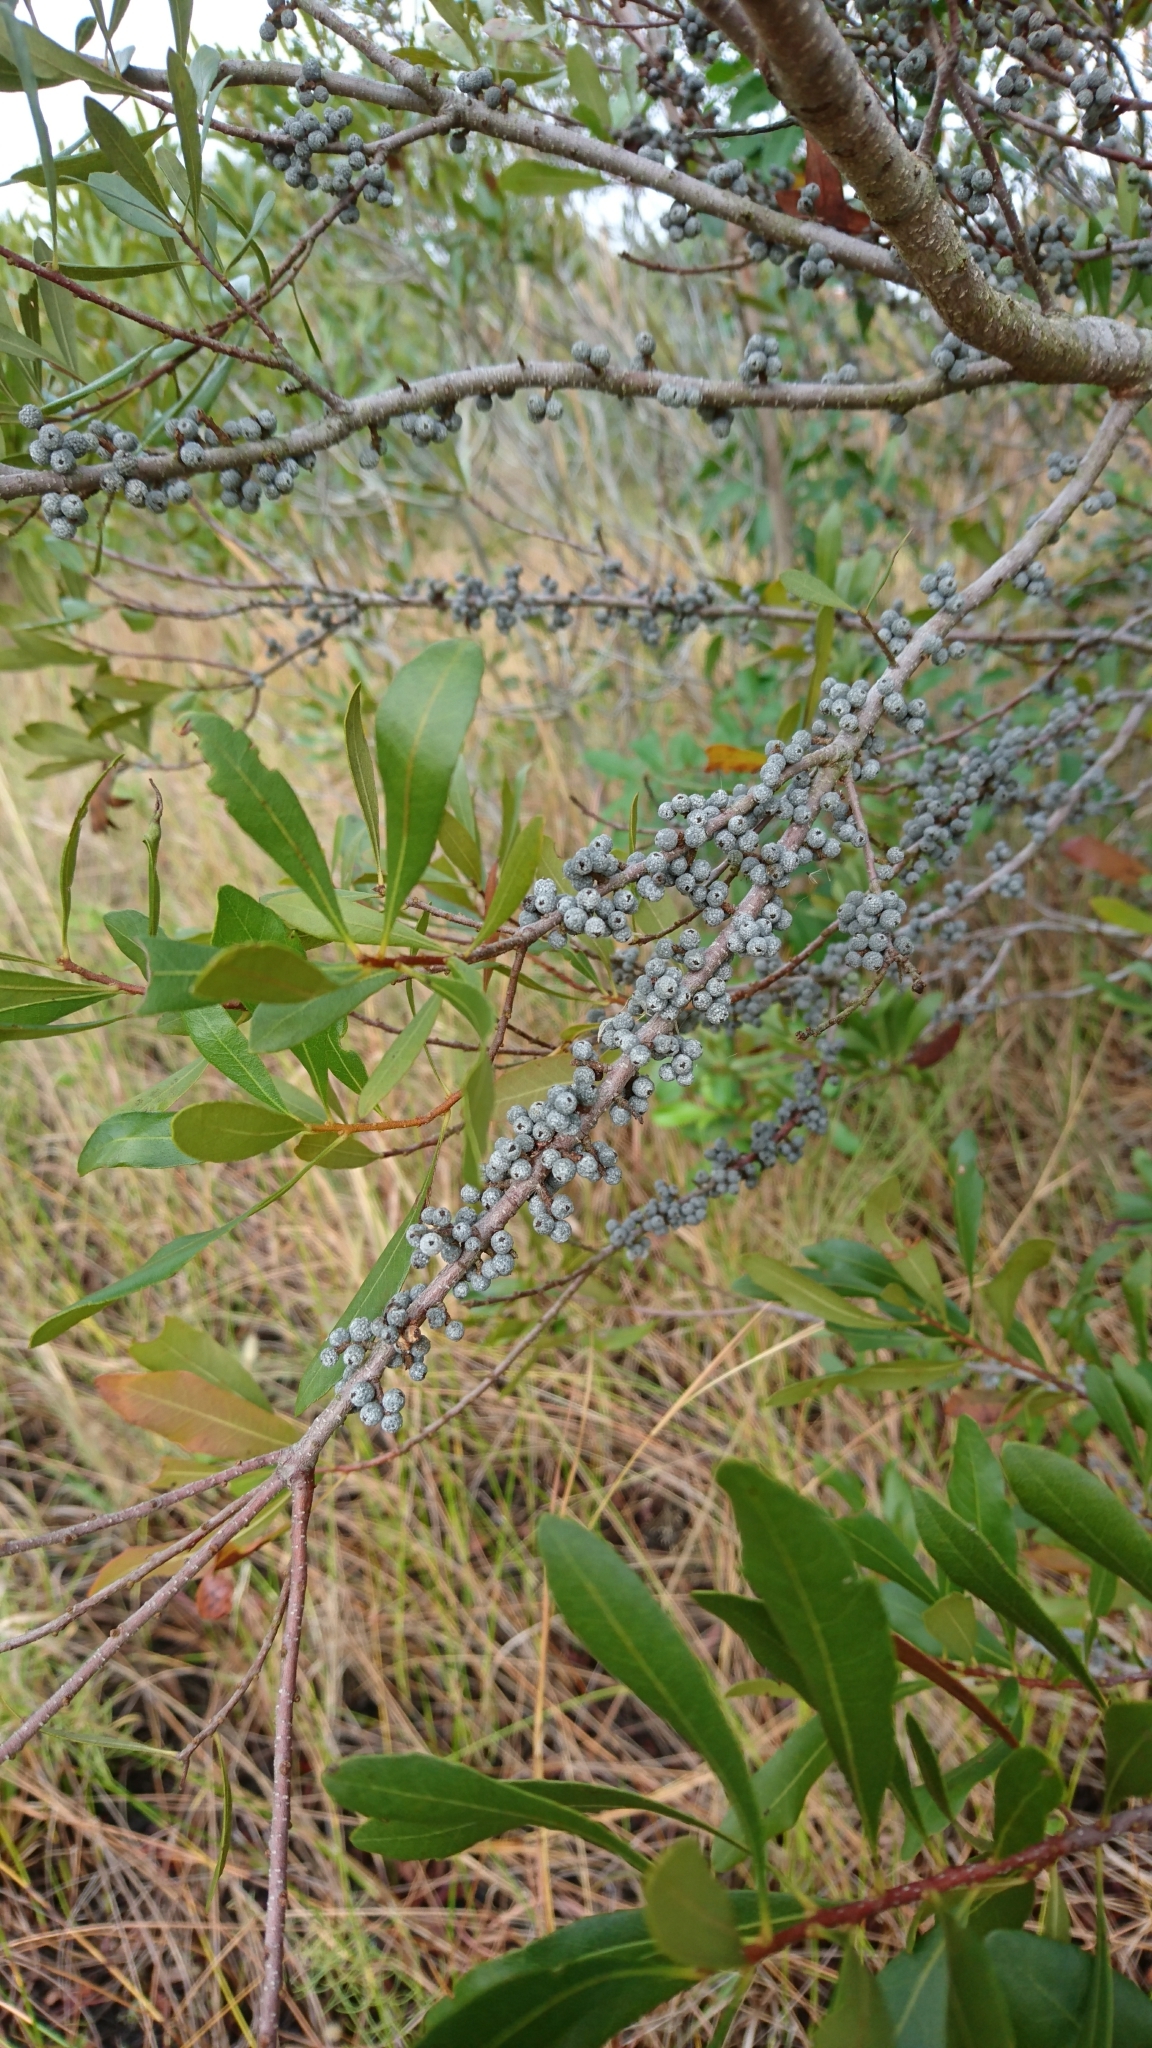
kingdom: Plantae
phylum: Tracheophyta
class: Magnoliopsida
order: Fagales
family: Myricaceae
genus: Morella
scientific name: Morella cerifera
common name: Wax myrtle
